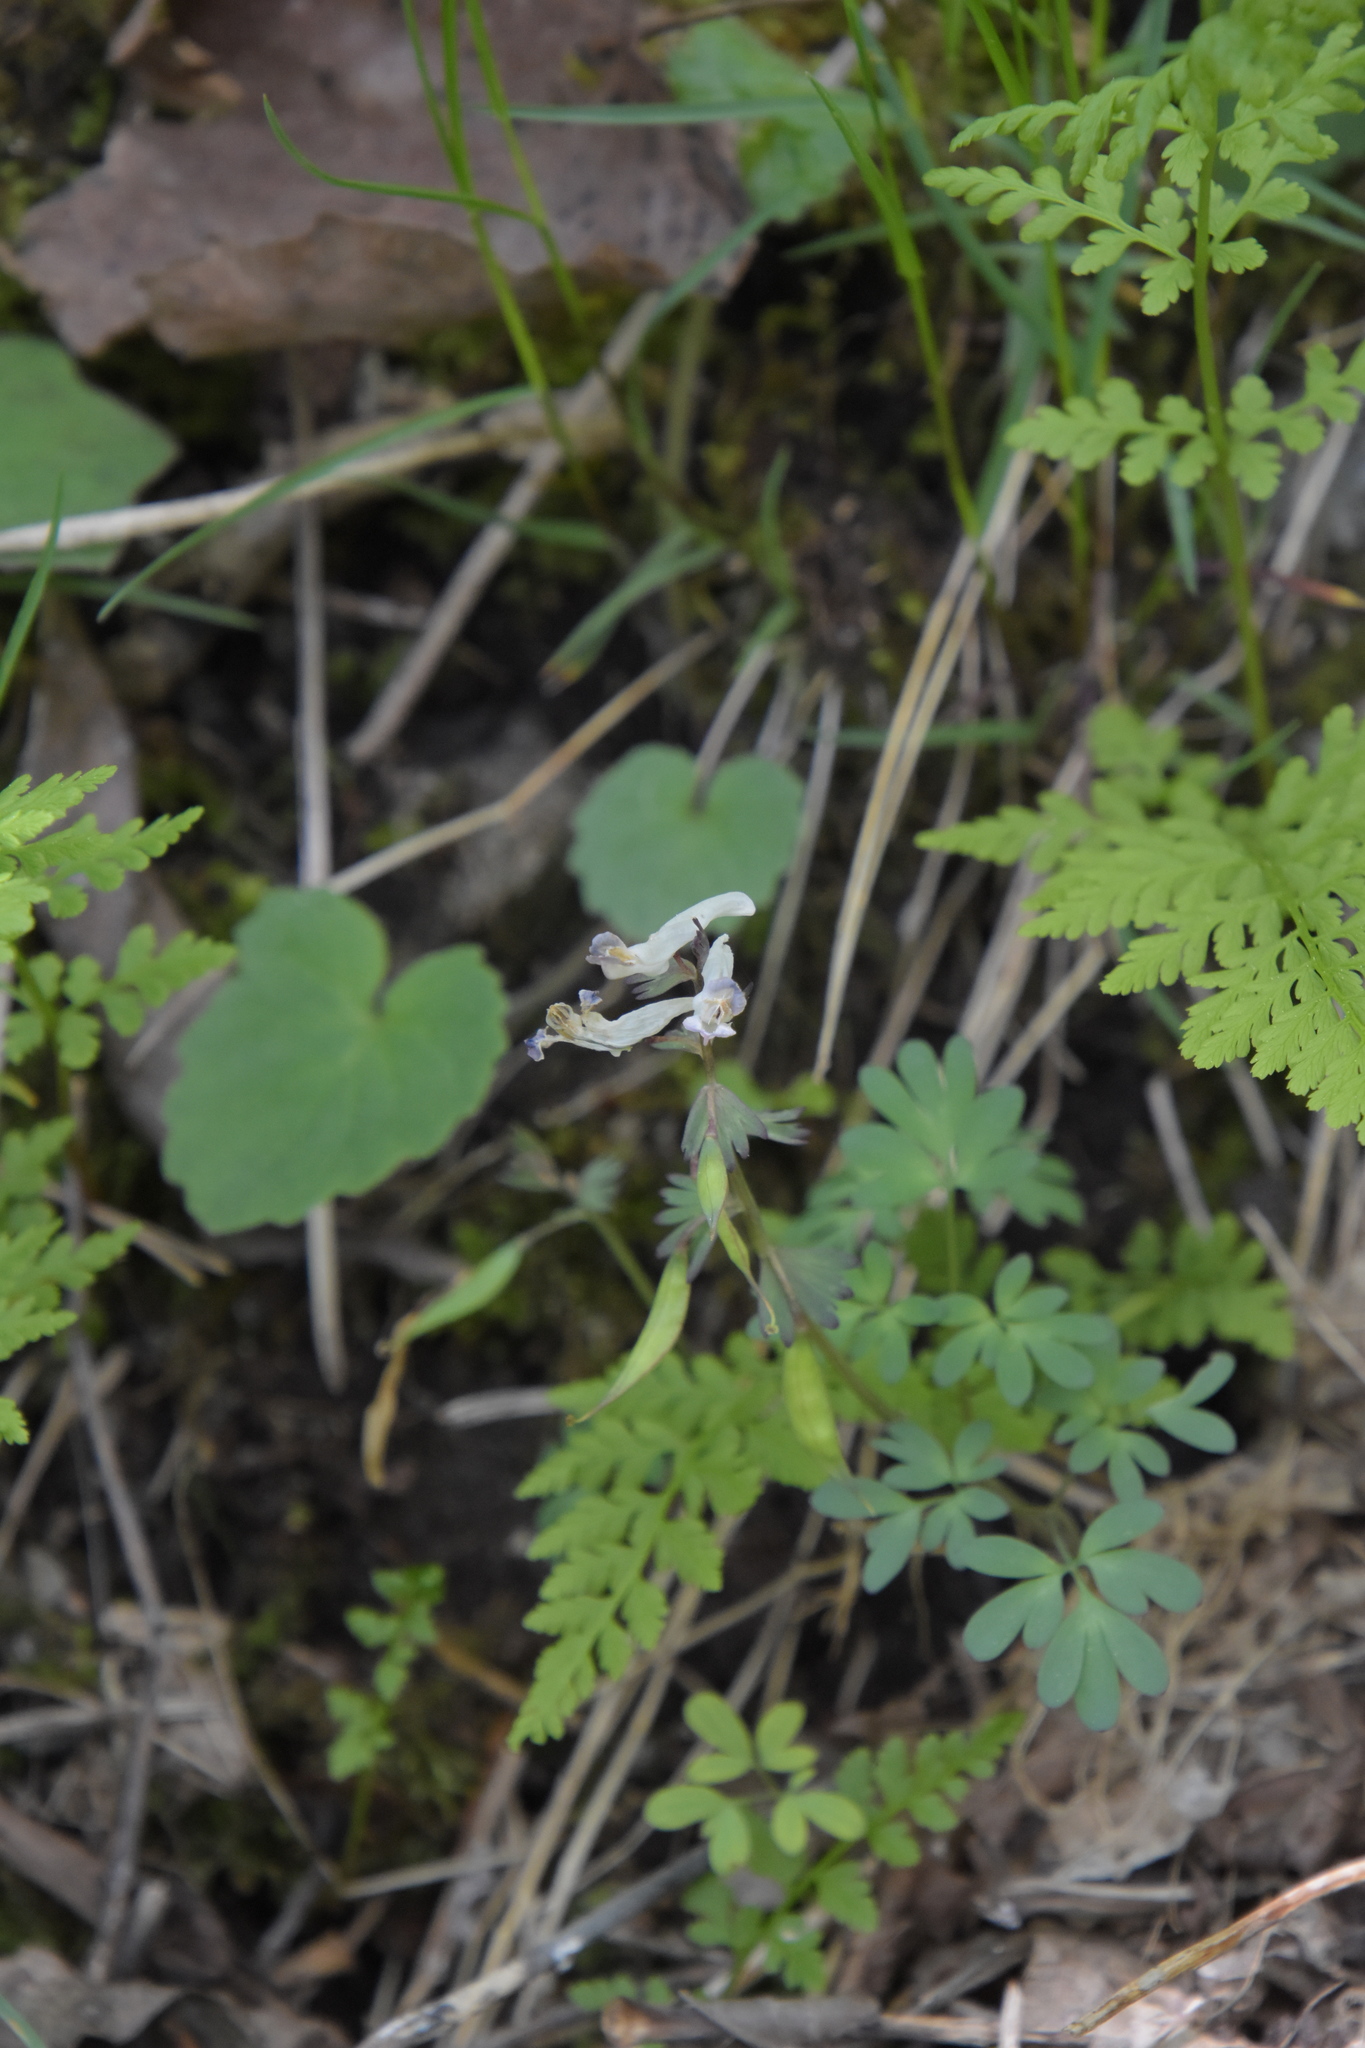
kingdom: Plantae
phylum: Tracheophyta
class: Magnoliopsida
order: Ranunculales
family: Papaveraceae
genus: Corydalis
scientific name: Corydalis solida
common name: Bird-in-a-bush
